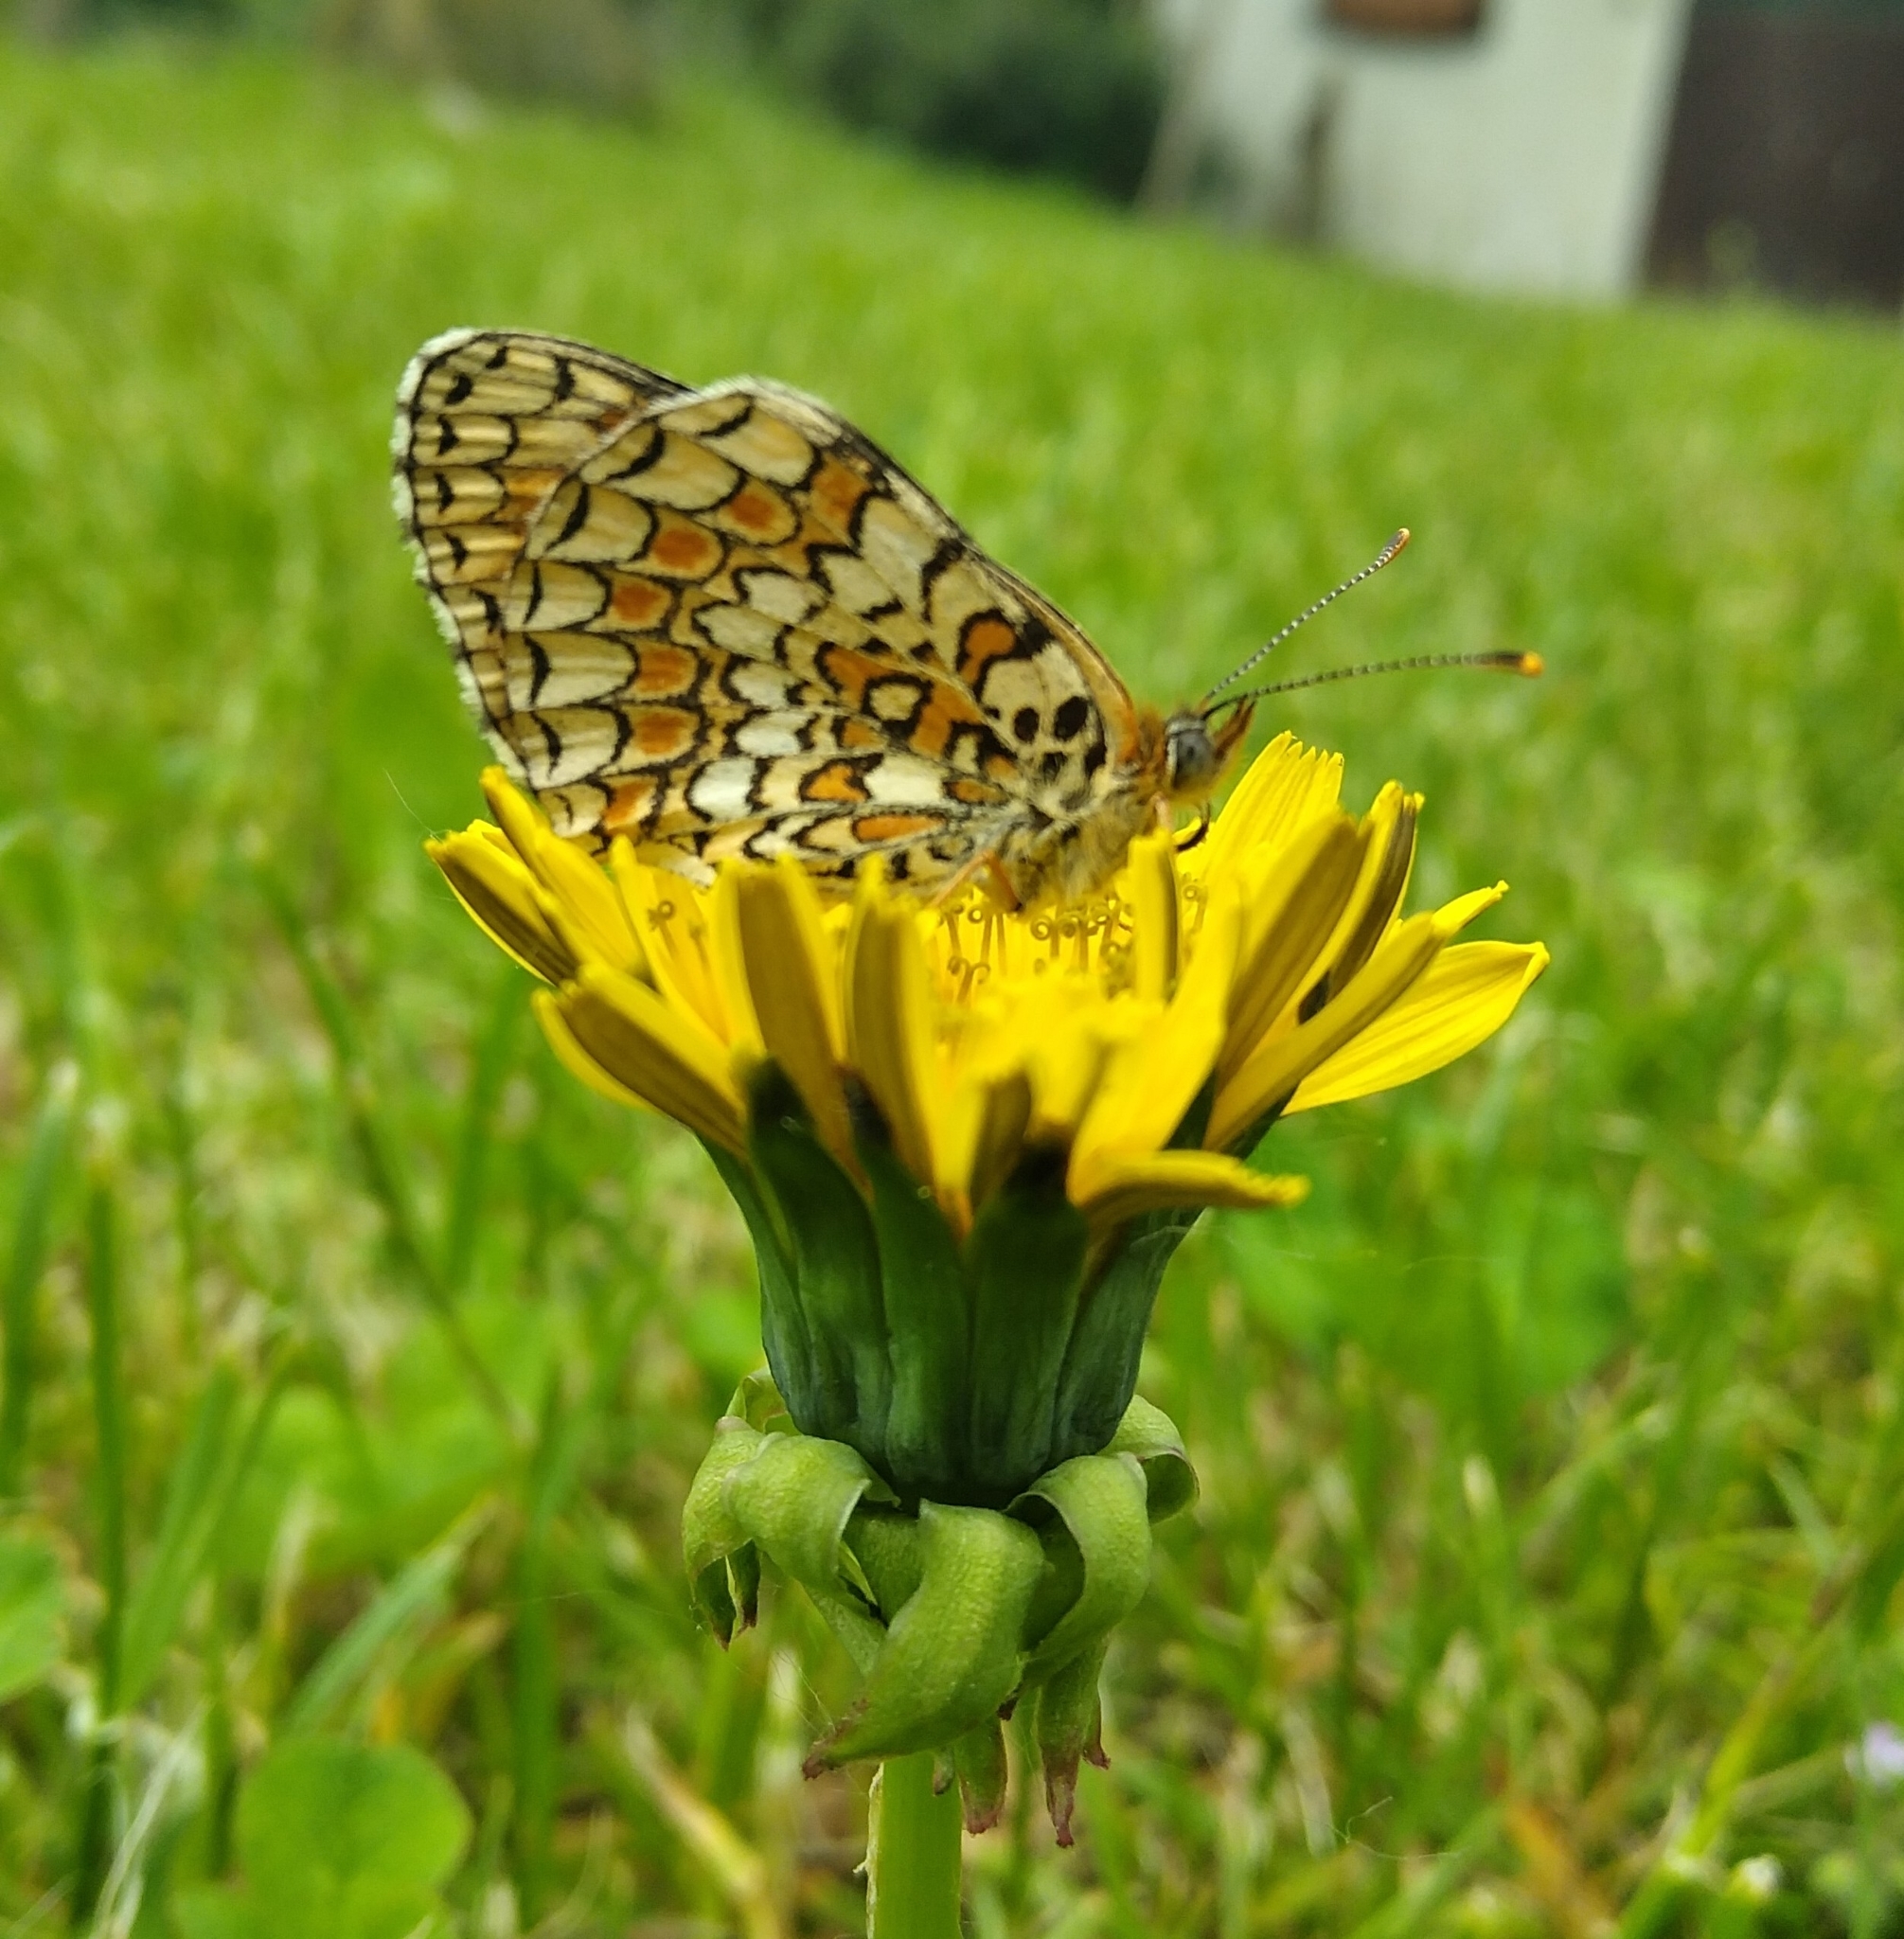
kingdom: Animalia
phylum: Arthropoda
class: Insecta
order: Lepidoptera
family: Nymphalidae
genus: Melitaea
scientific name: Melitaea phoebe
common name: Knapweed fritillary
